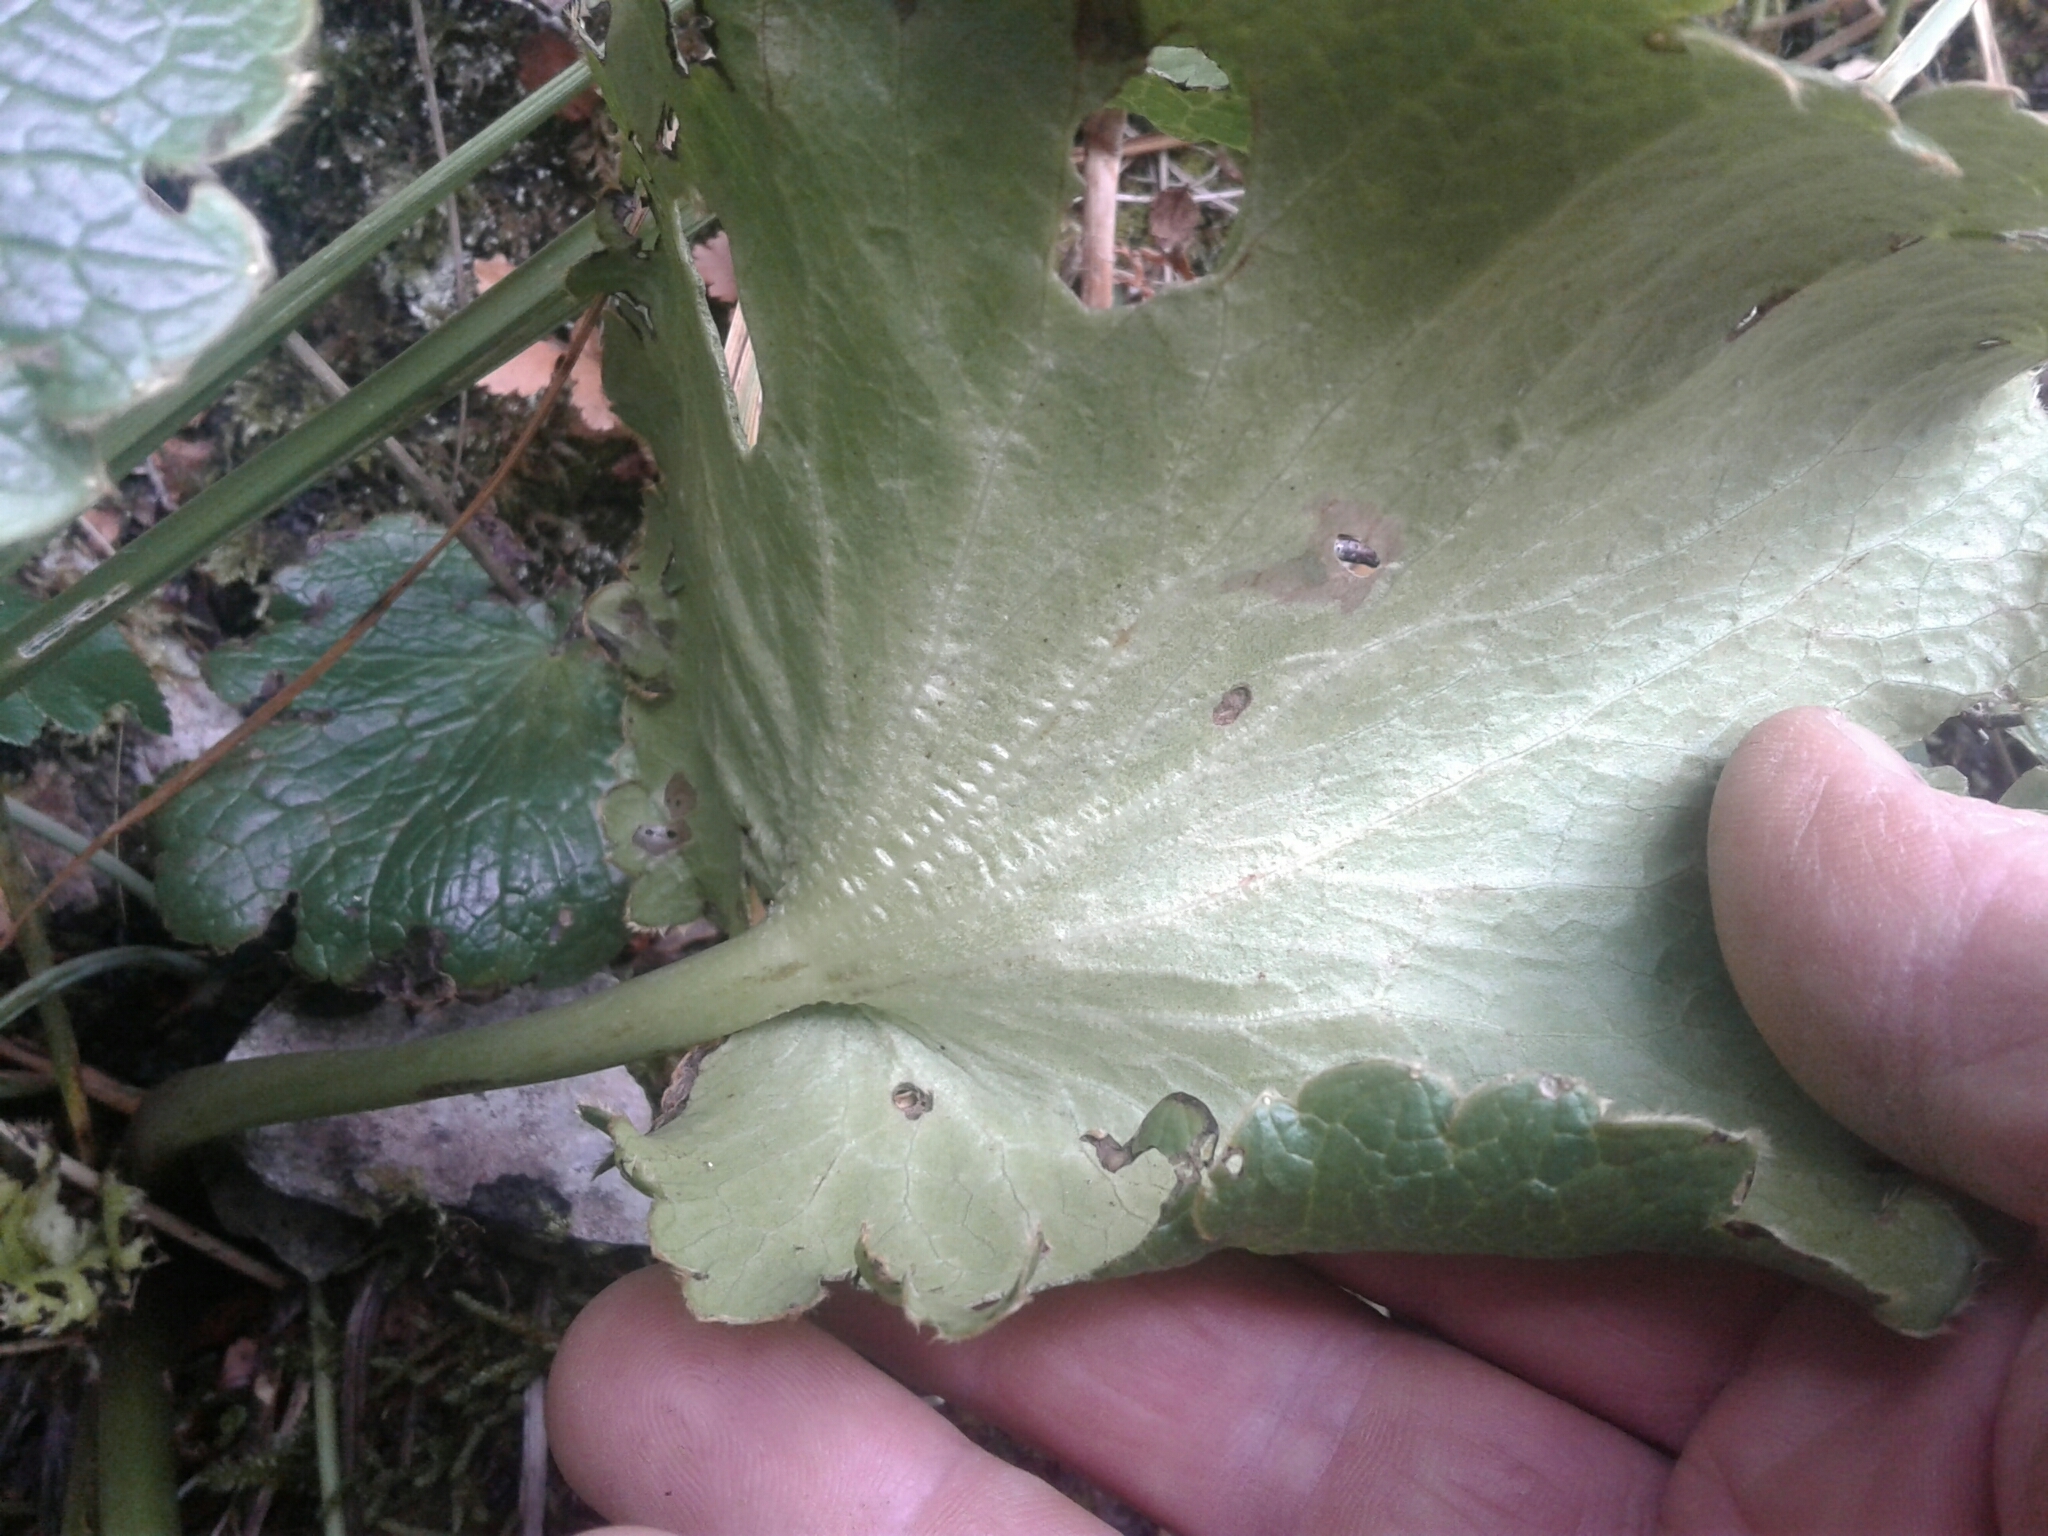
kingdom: Plantae
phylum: Tracheophyta
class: Magnoliopsida
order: Ranunculales
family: Ranunculaceae
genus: Ranunculus
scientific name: Ranunculus insignis
